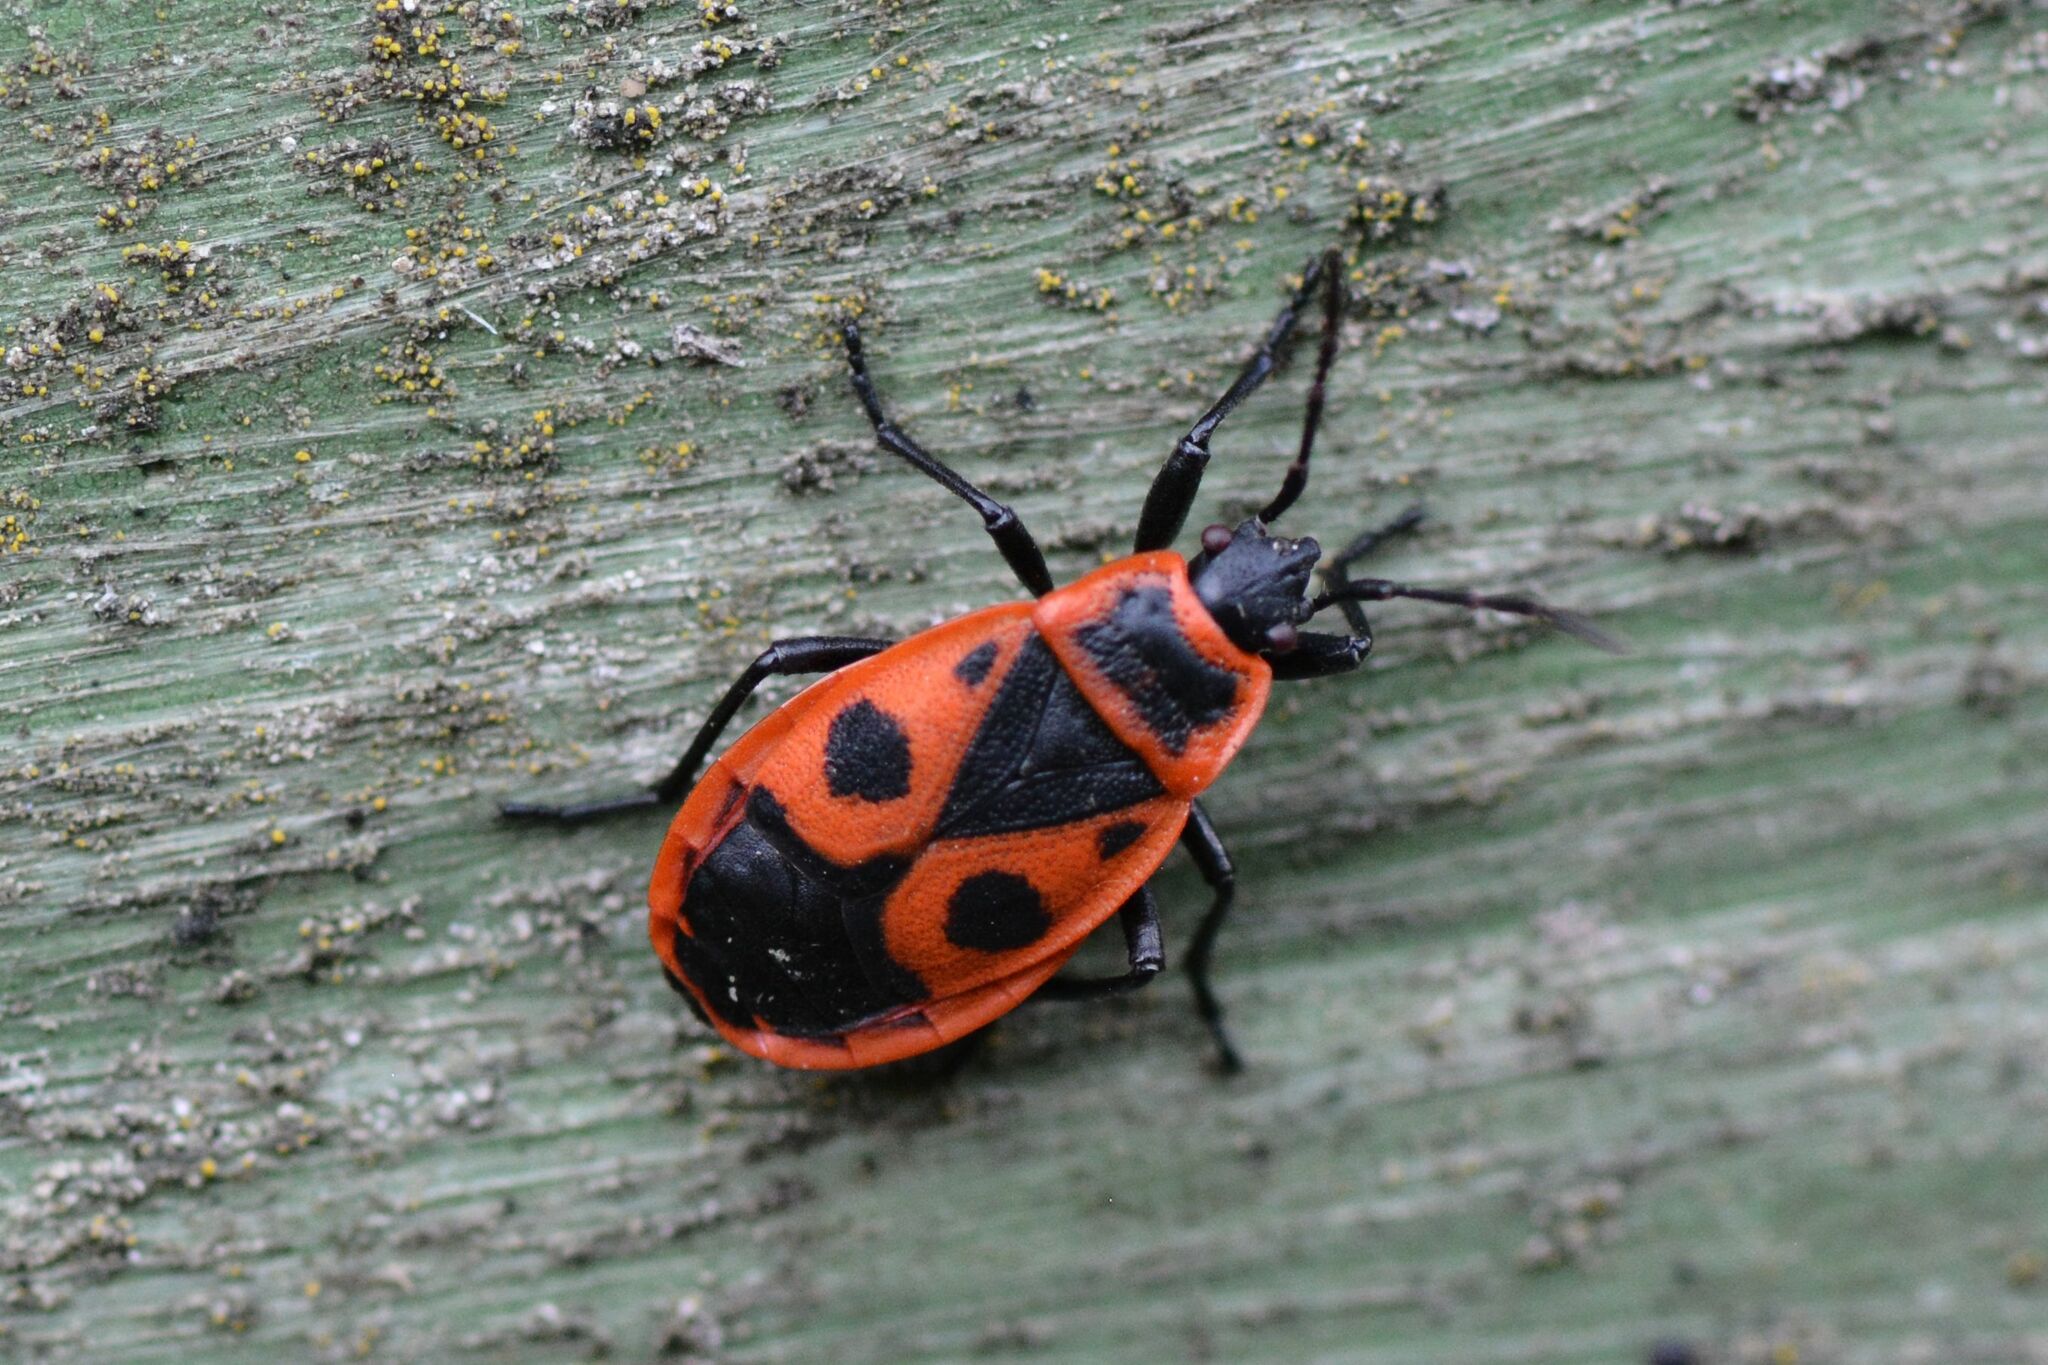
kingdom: Animalia
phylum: Arthropoda
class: Insecta
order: Hemiptera
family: Pyrrhocoridae
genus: Pyrrhocoris
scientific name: Pyrrhocoris apterus
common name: Firebug
